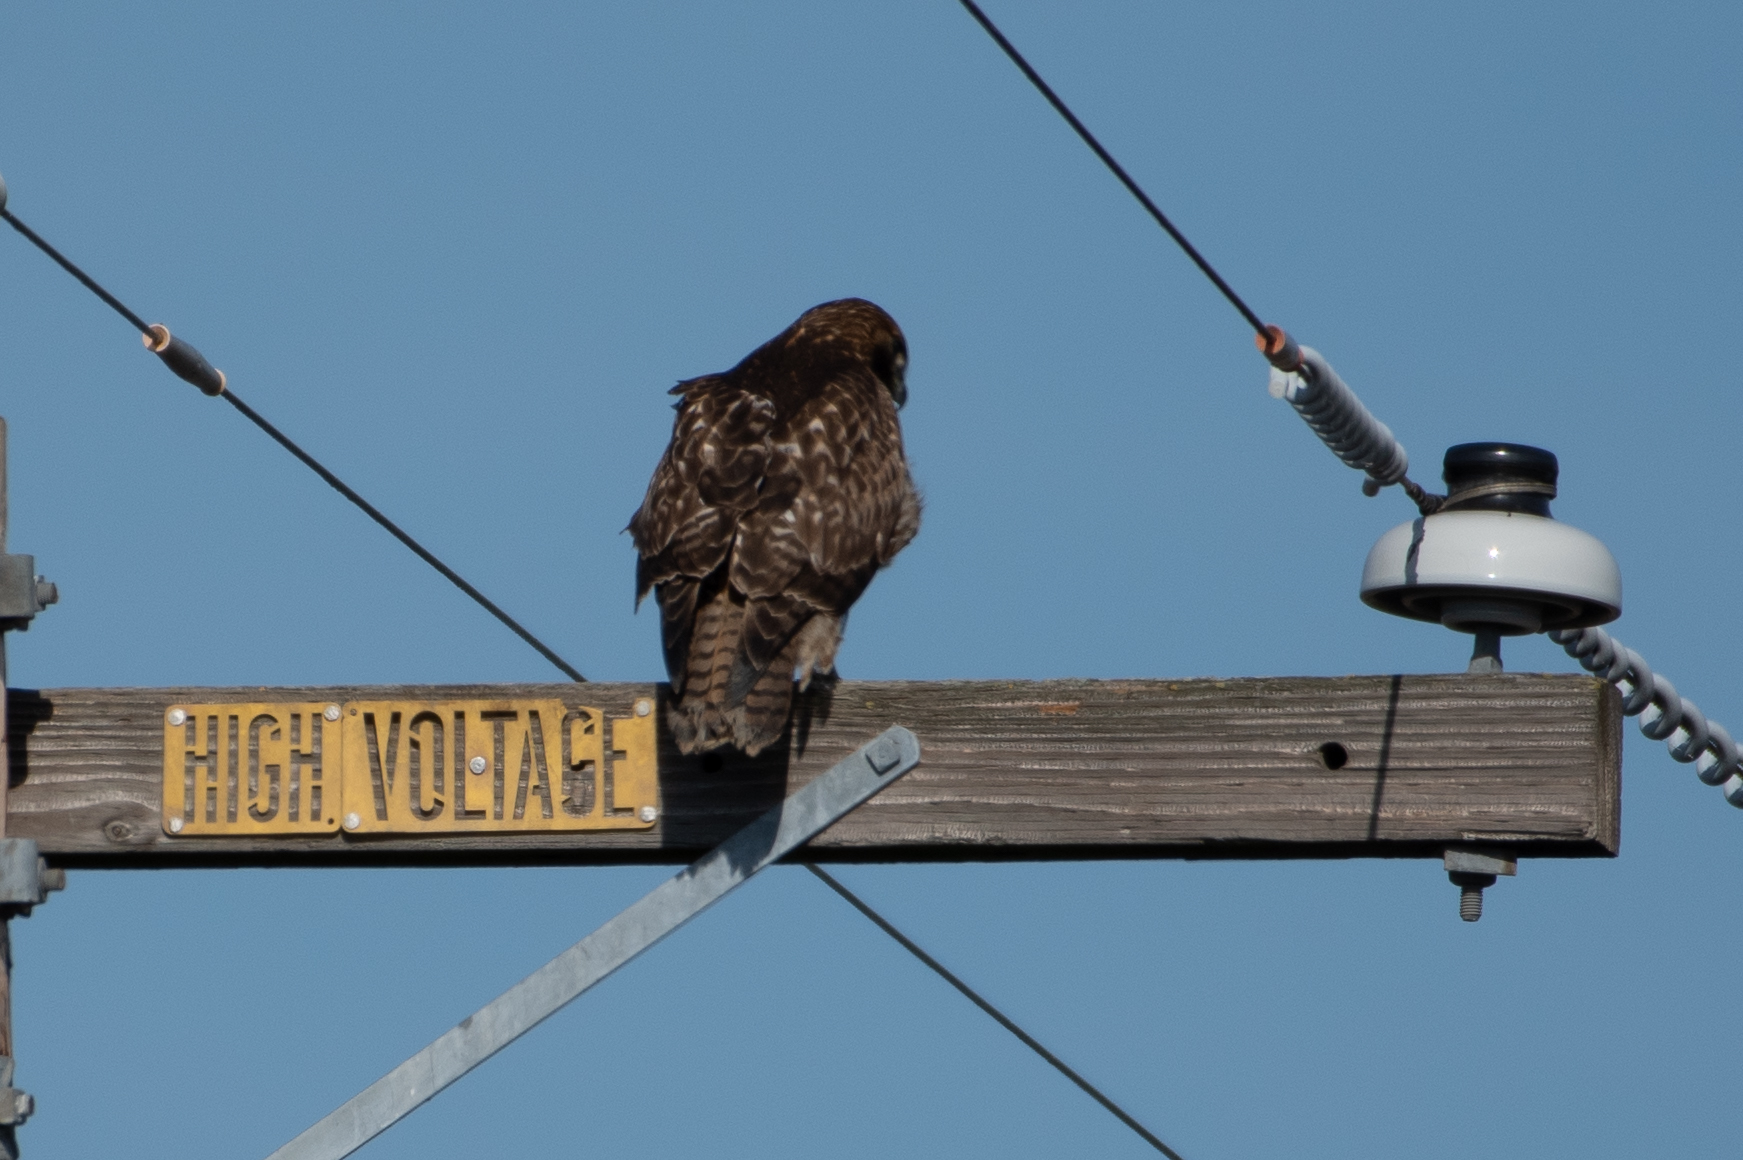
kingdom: Animalia
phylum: Chordata
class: Aves
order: Accipitriformes
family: Accipitridae
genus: Buteo
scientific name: Buteo jamaicensis
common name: Red-tailed hawk
